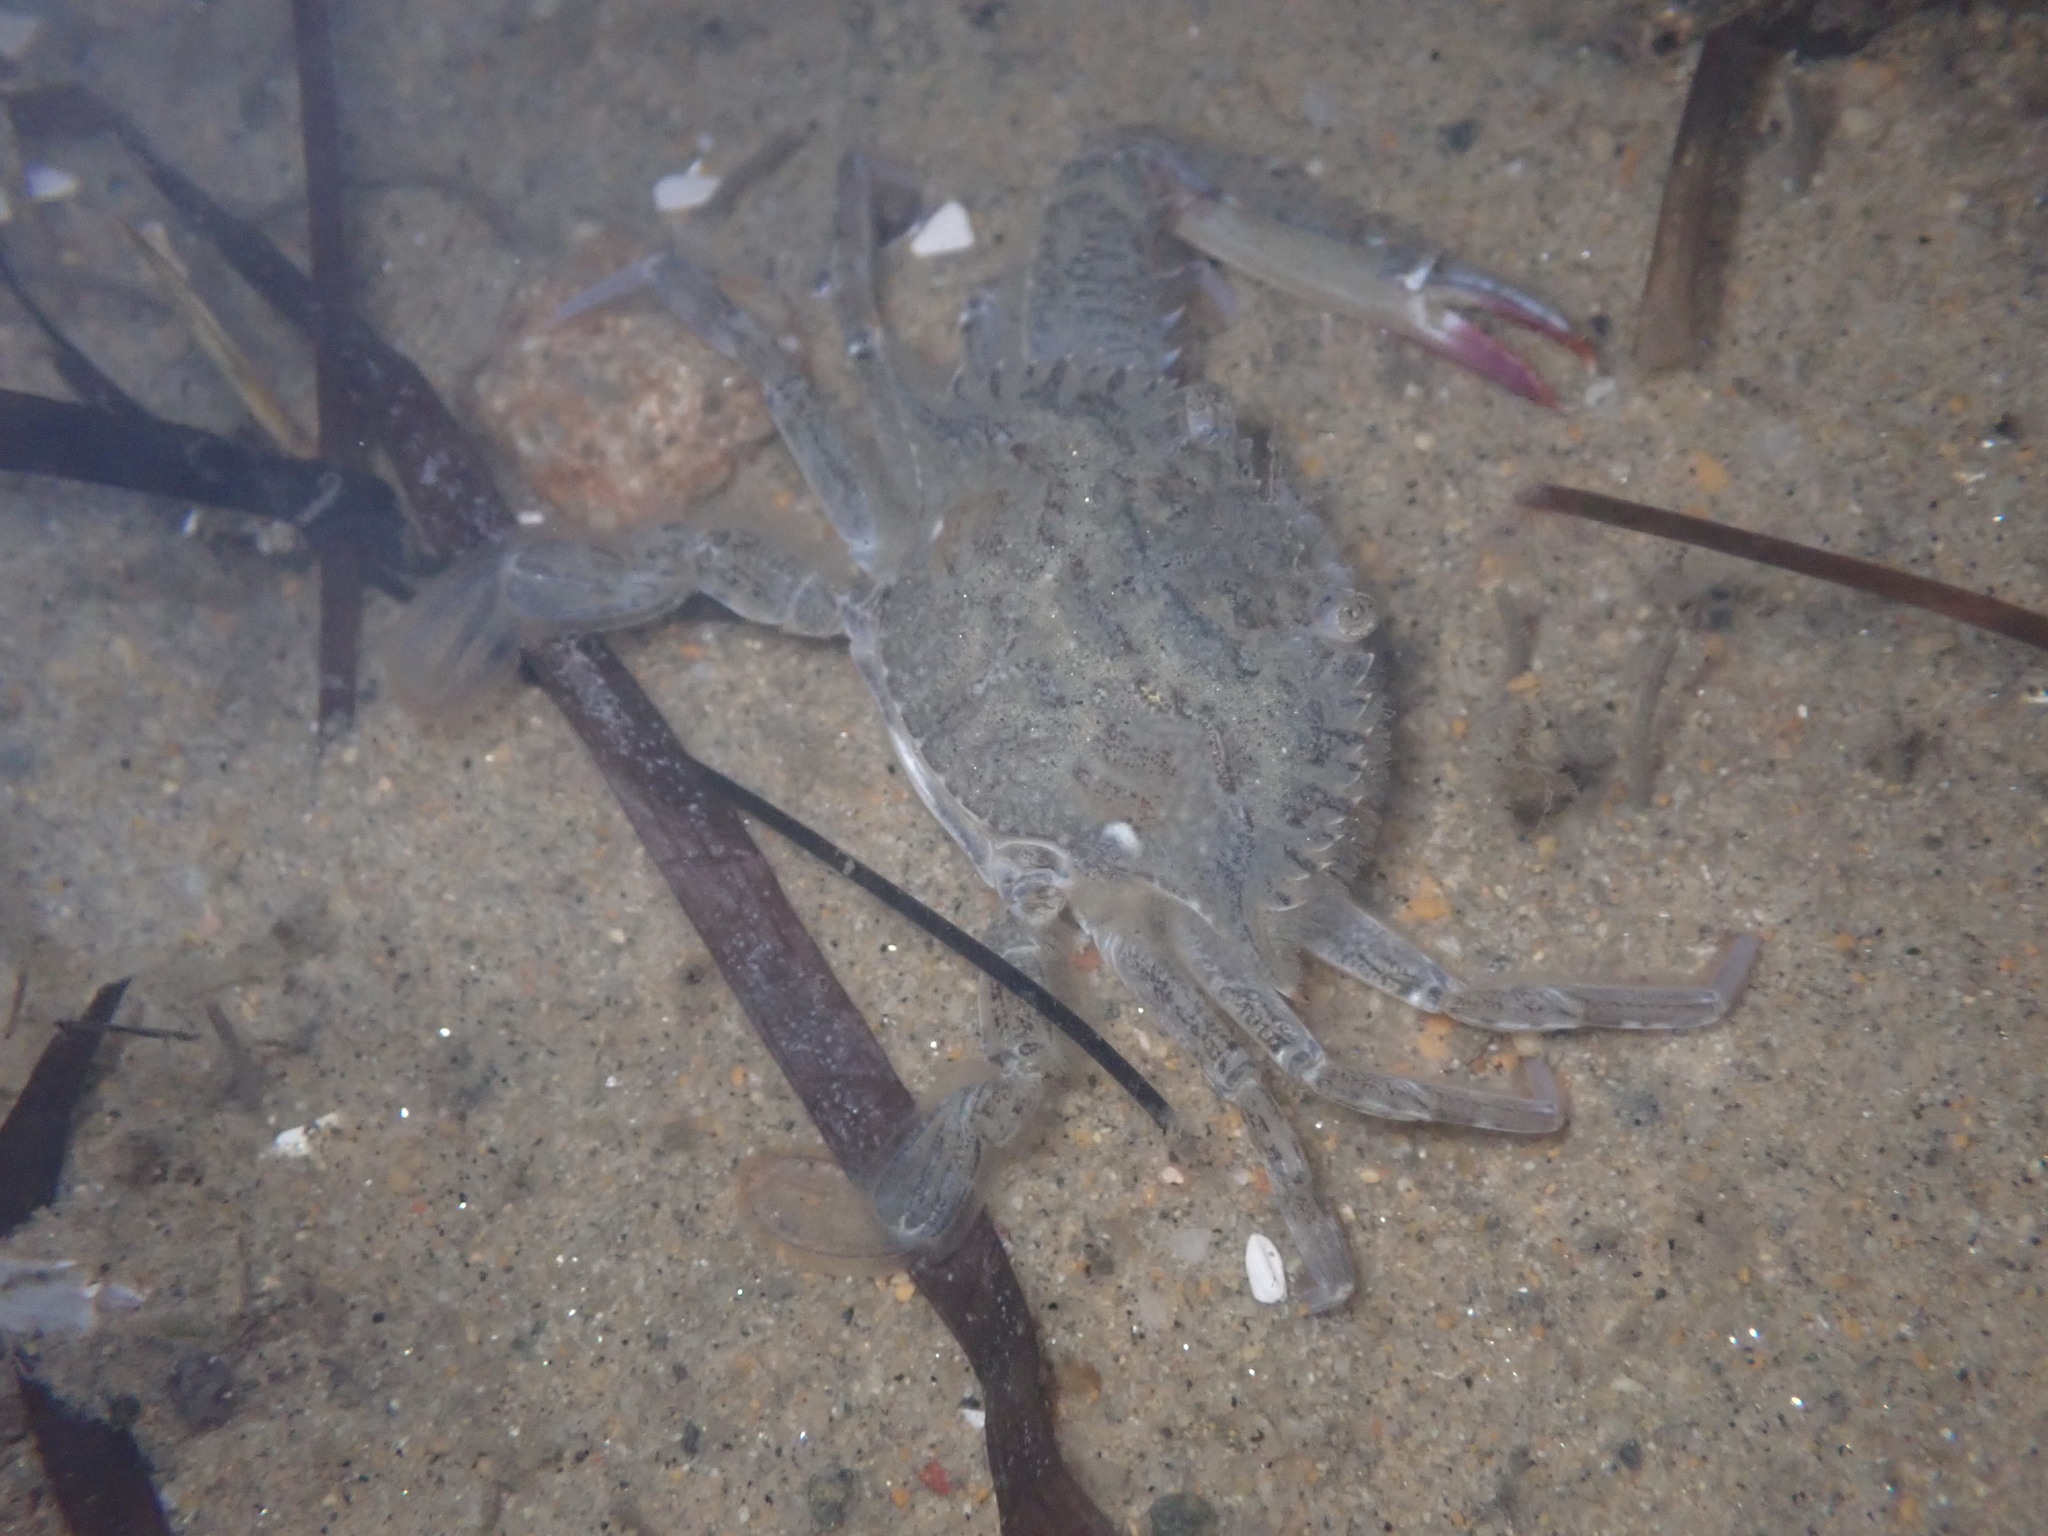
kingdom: Animalia
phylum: Arthropoda
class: Malacostraca
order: Decapoda
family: Portunidae
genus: Achelous
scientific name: Achelous xantusii
